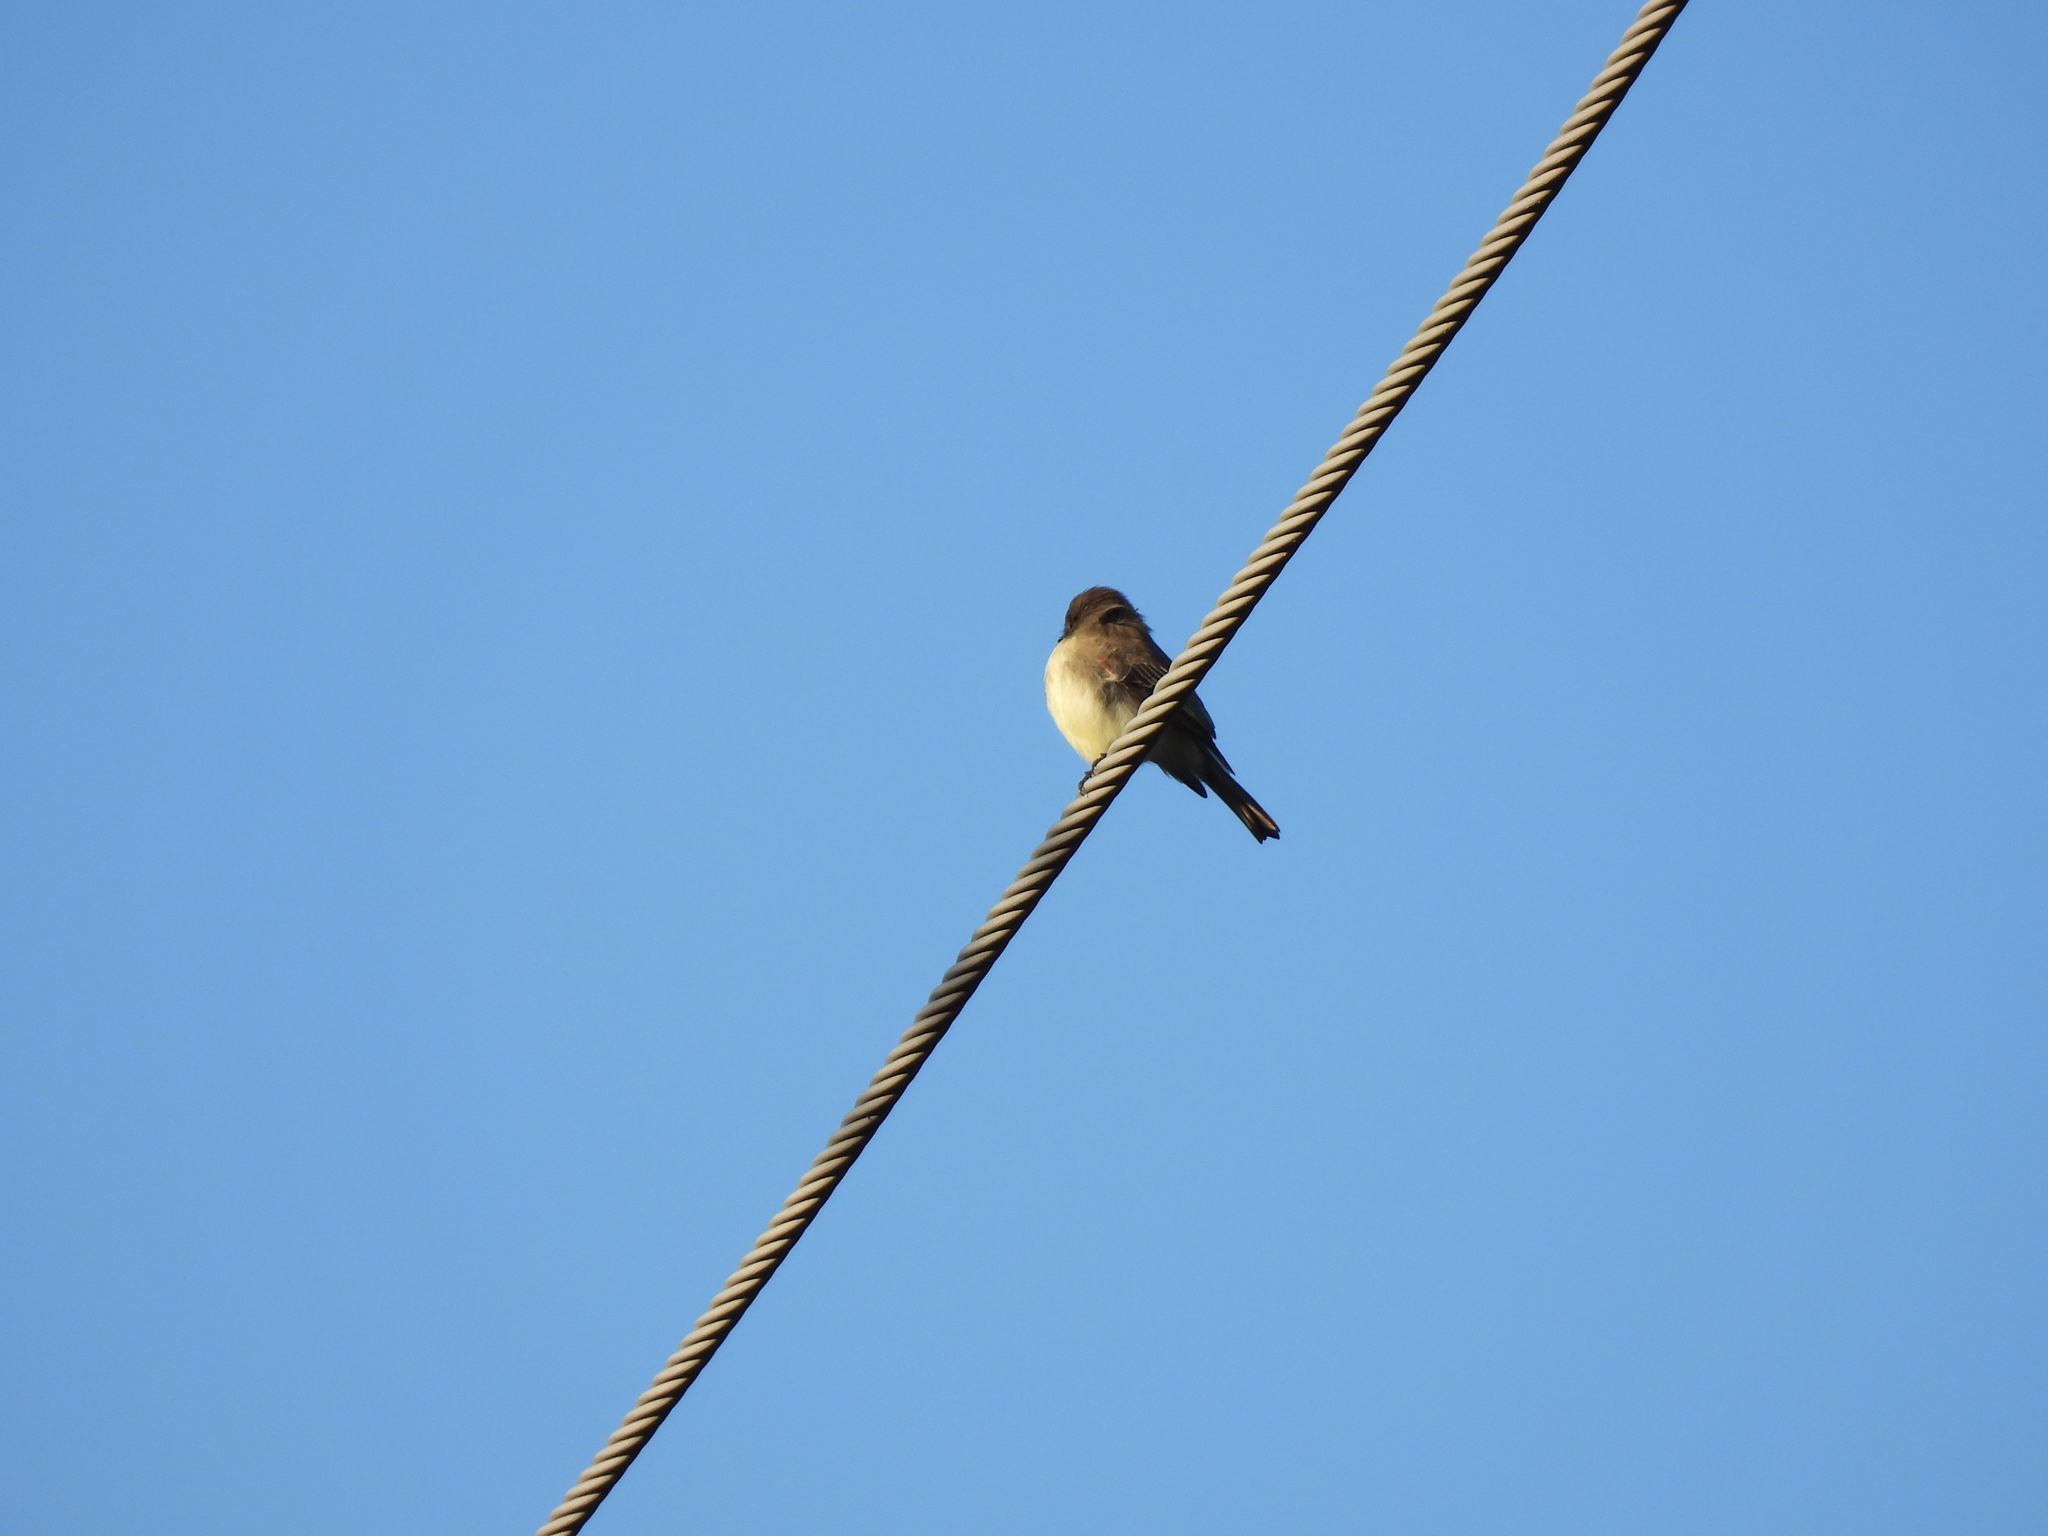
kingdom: Animalia
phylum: Chordata
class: Aves
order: Passeriformes
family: Tyrannidae
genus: Sayornis
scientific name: Sayornis phoebe
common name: Eastern phoebe
